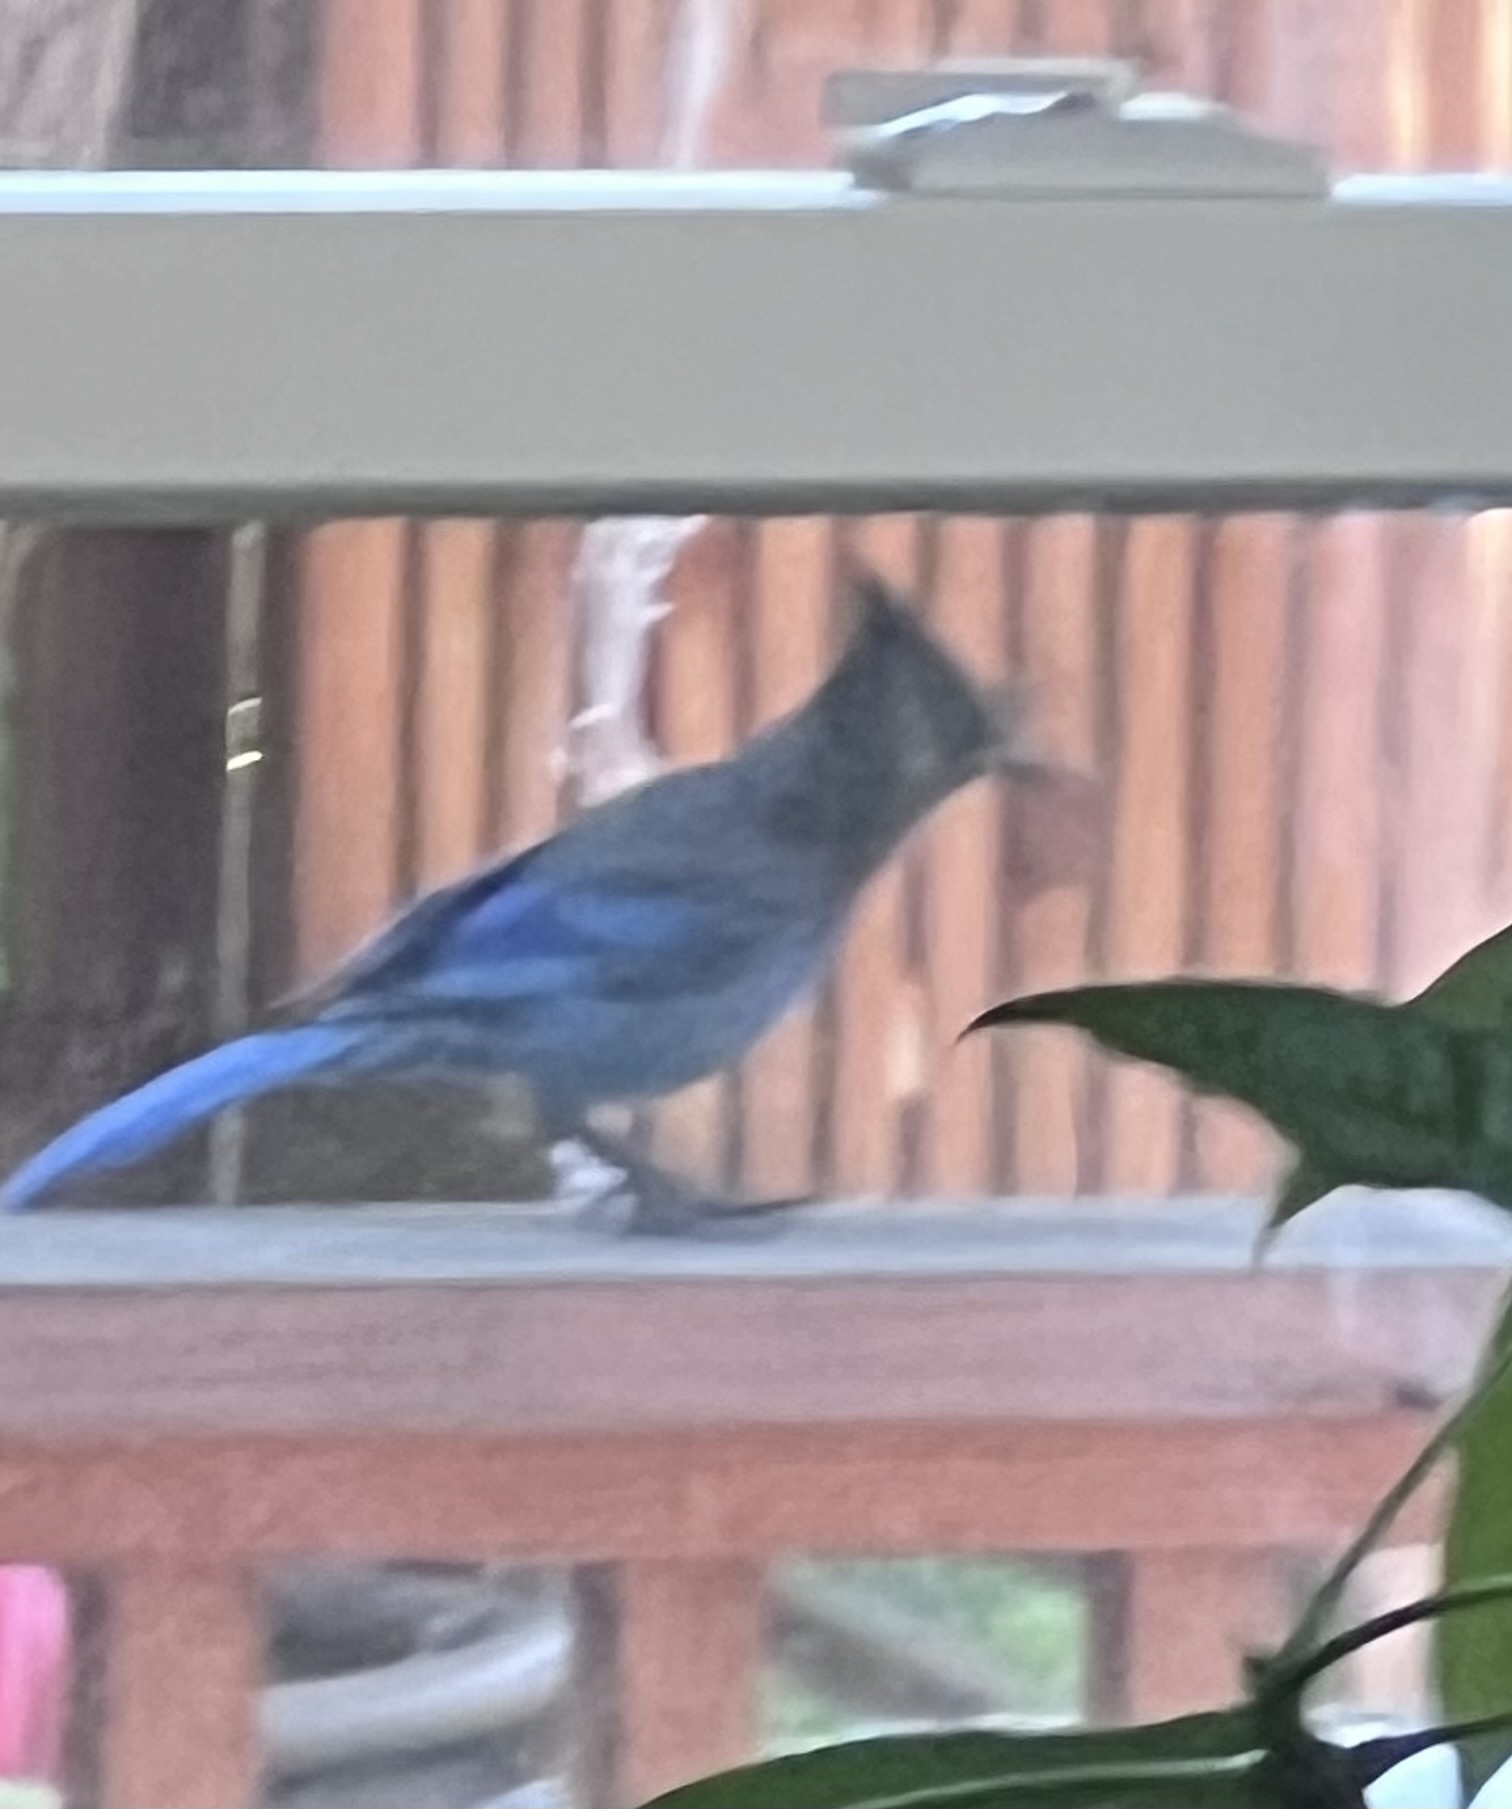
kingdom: Animalia
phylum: Chordata
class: Aves
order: Passeriformes
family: Corvidae
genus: Cyanocitta
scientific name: Cyanocitta stelleri
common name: Steller's jay
